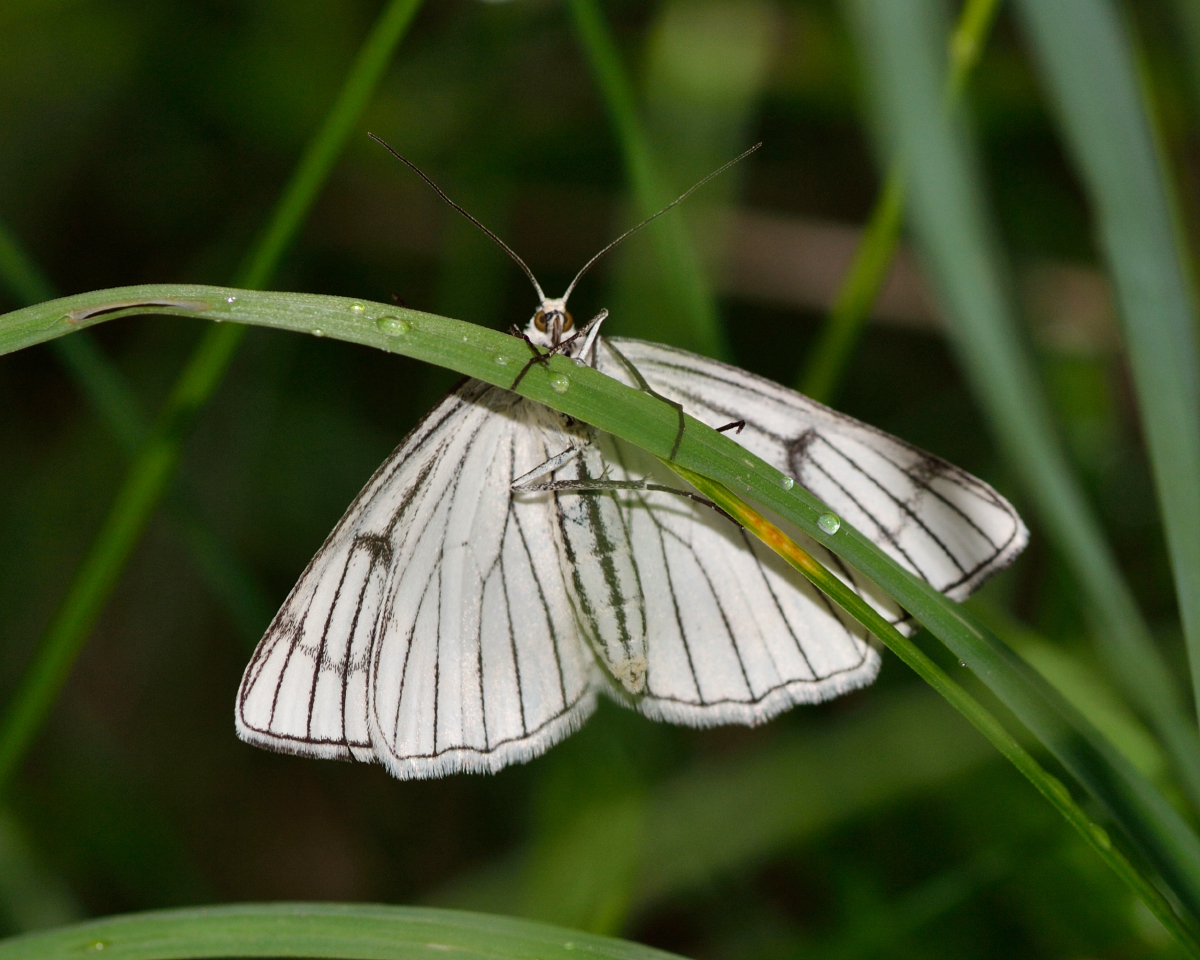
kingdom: Animalia
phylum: Arthropoda
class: Insecta
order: Lepidoptera
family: Geometridae
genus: Siona
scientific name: Siona lineata
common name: Black-veined moth
